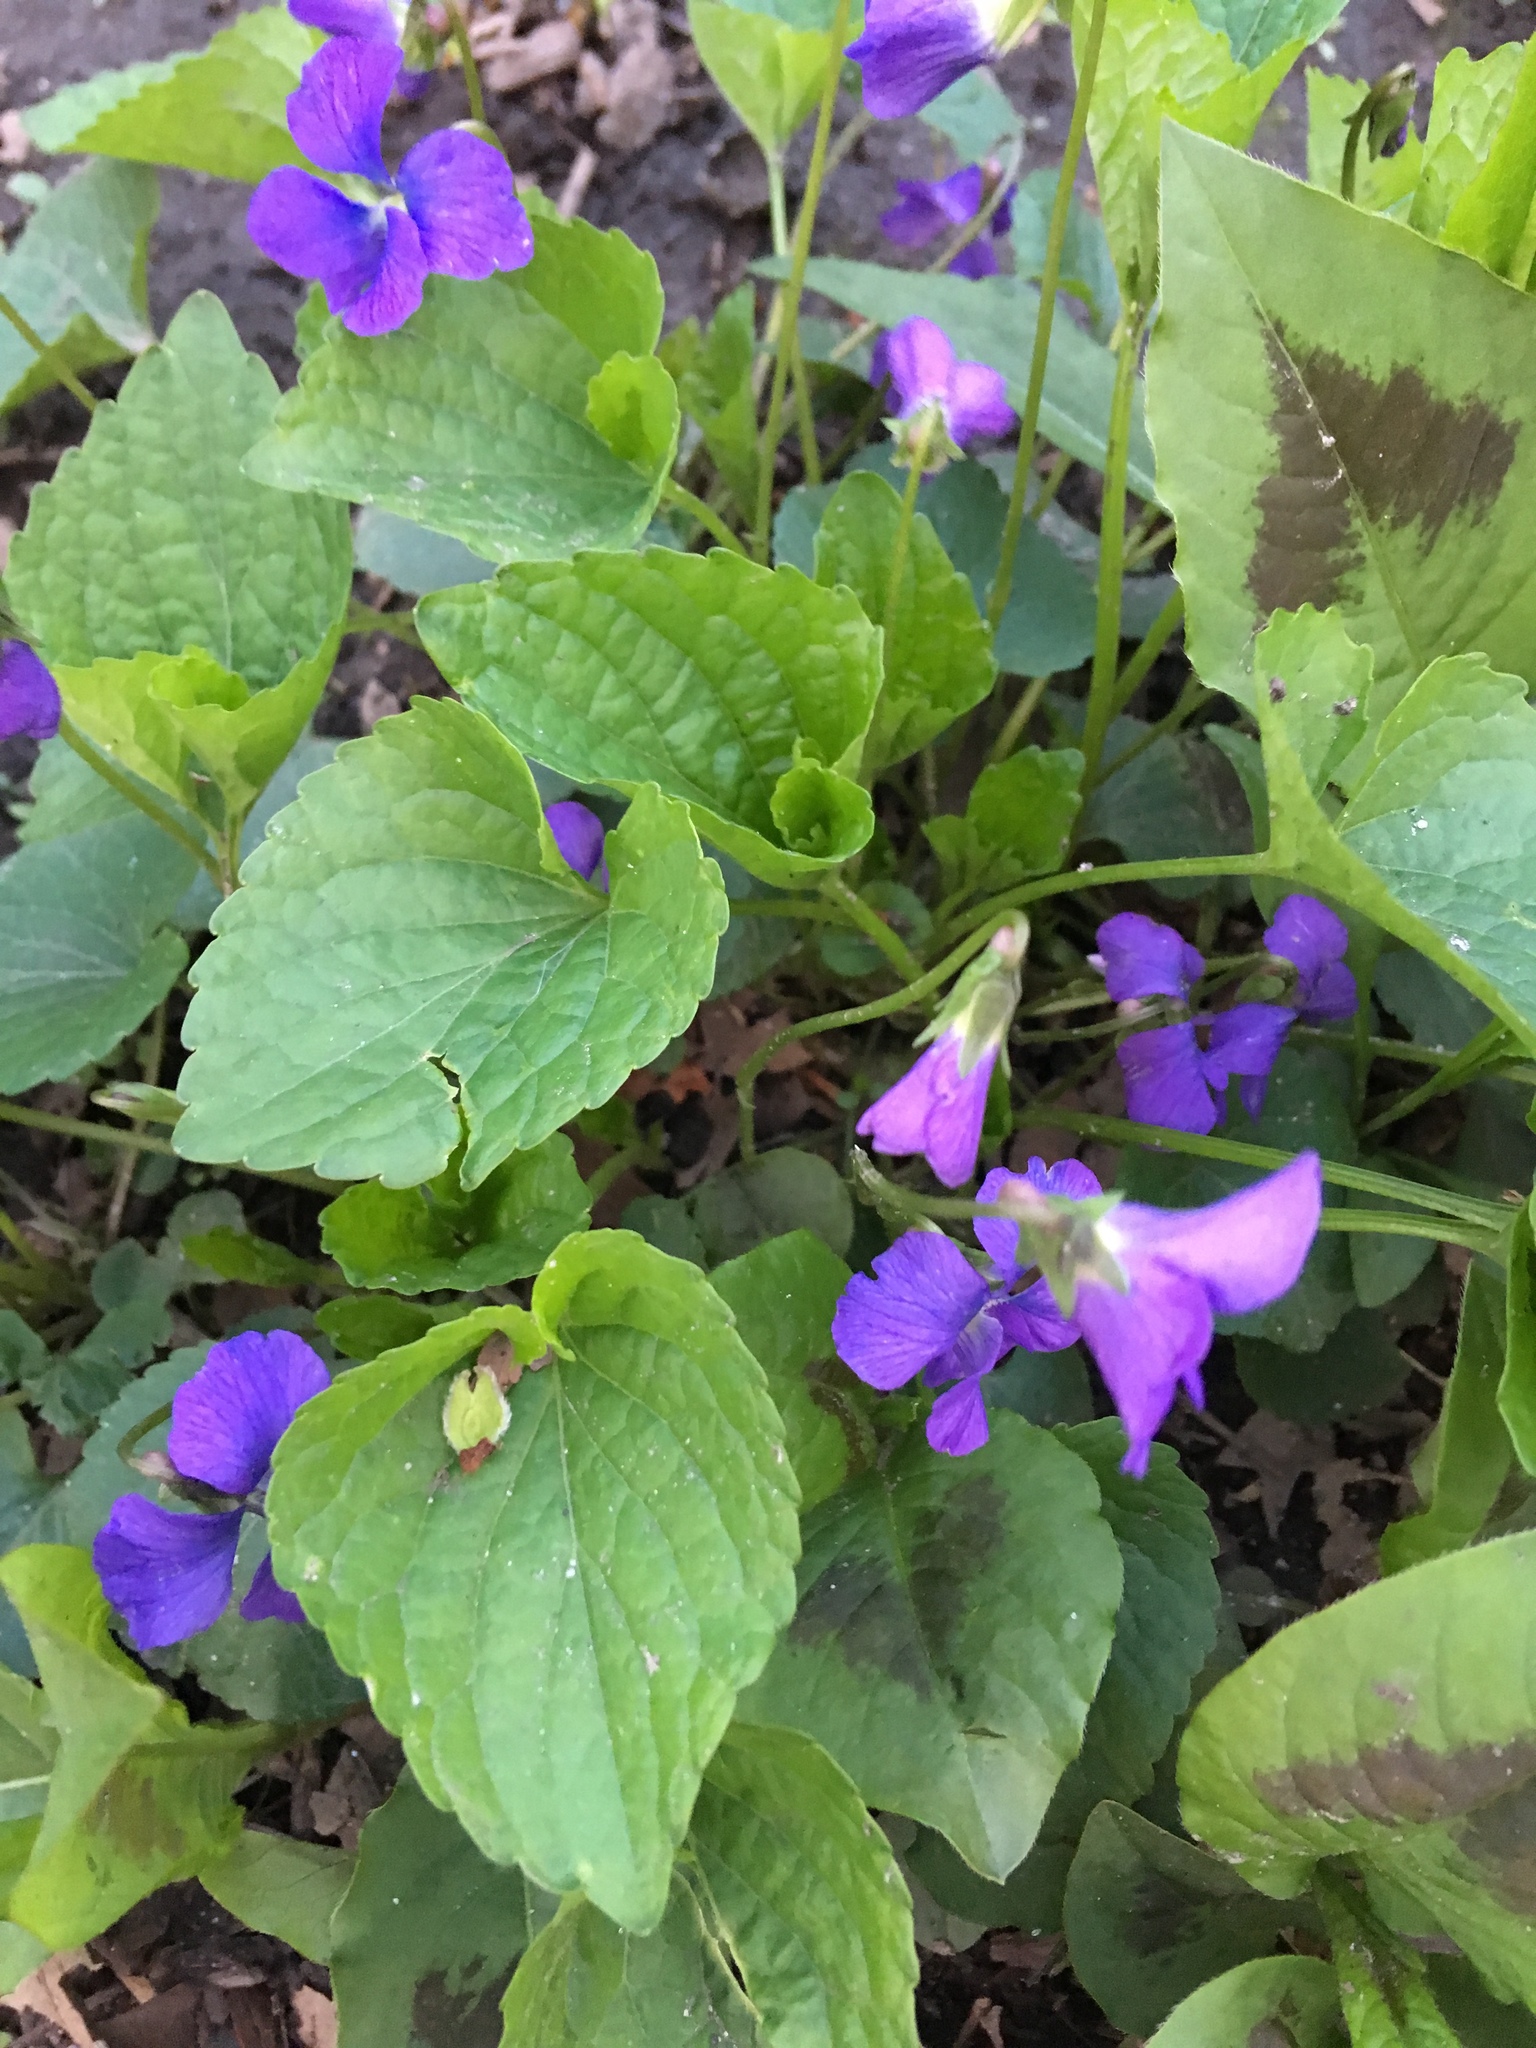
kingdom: Plantae
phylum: Tracheophyta
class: Magnoliopsida
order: Malpighiales
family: Violaceae
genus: Viola
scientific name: Viola sororia
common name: Dooryard violet
